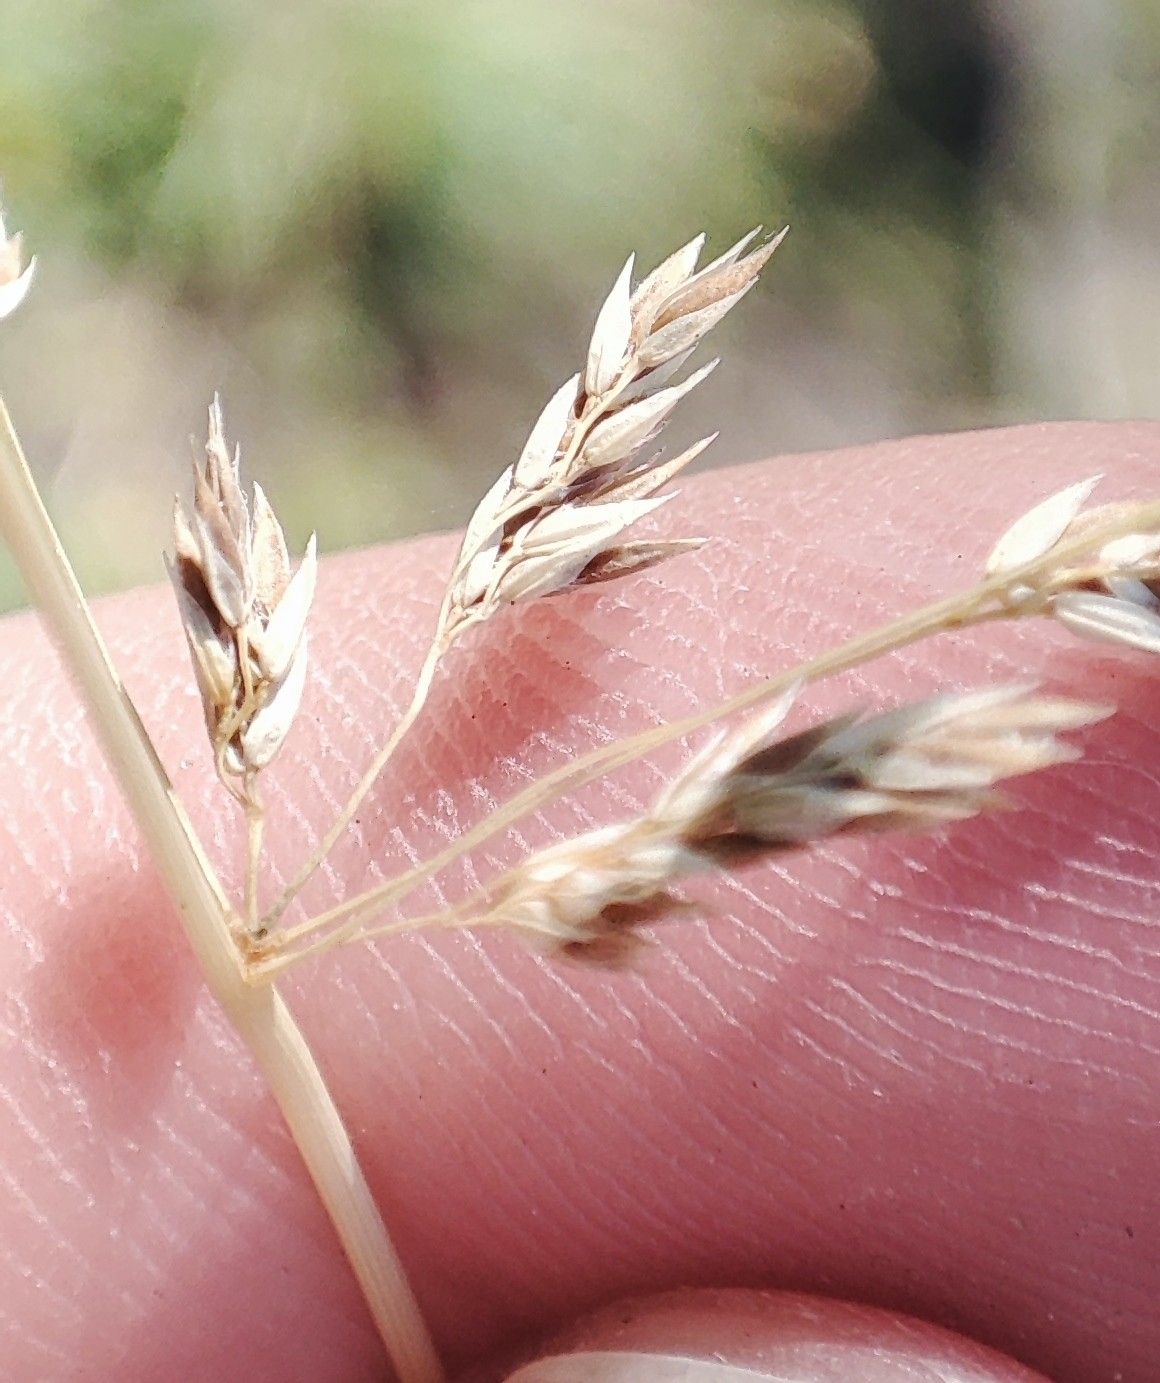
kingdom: Plantae
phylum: Tracheophyta
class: Liliopsida
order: Poales
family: Poaceae
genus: Poa
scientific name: Poa pratensis
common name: Kentucky bluegrass
